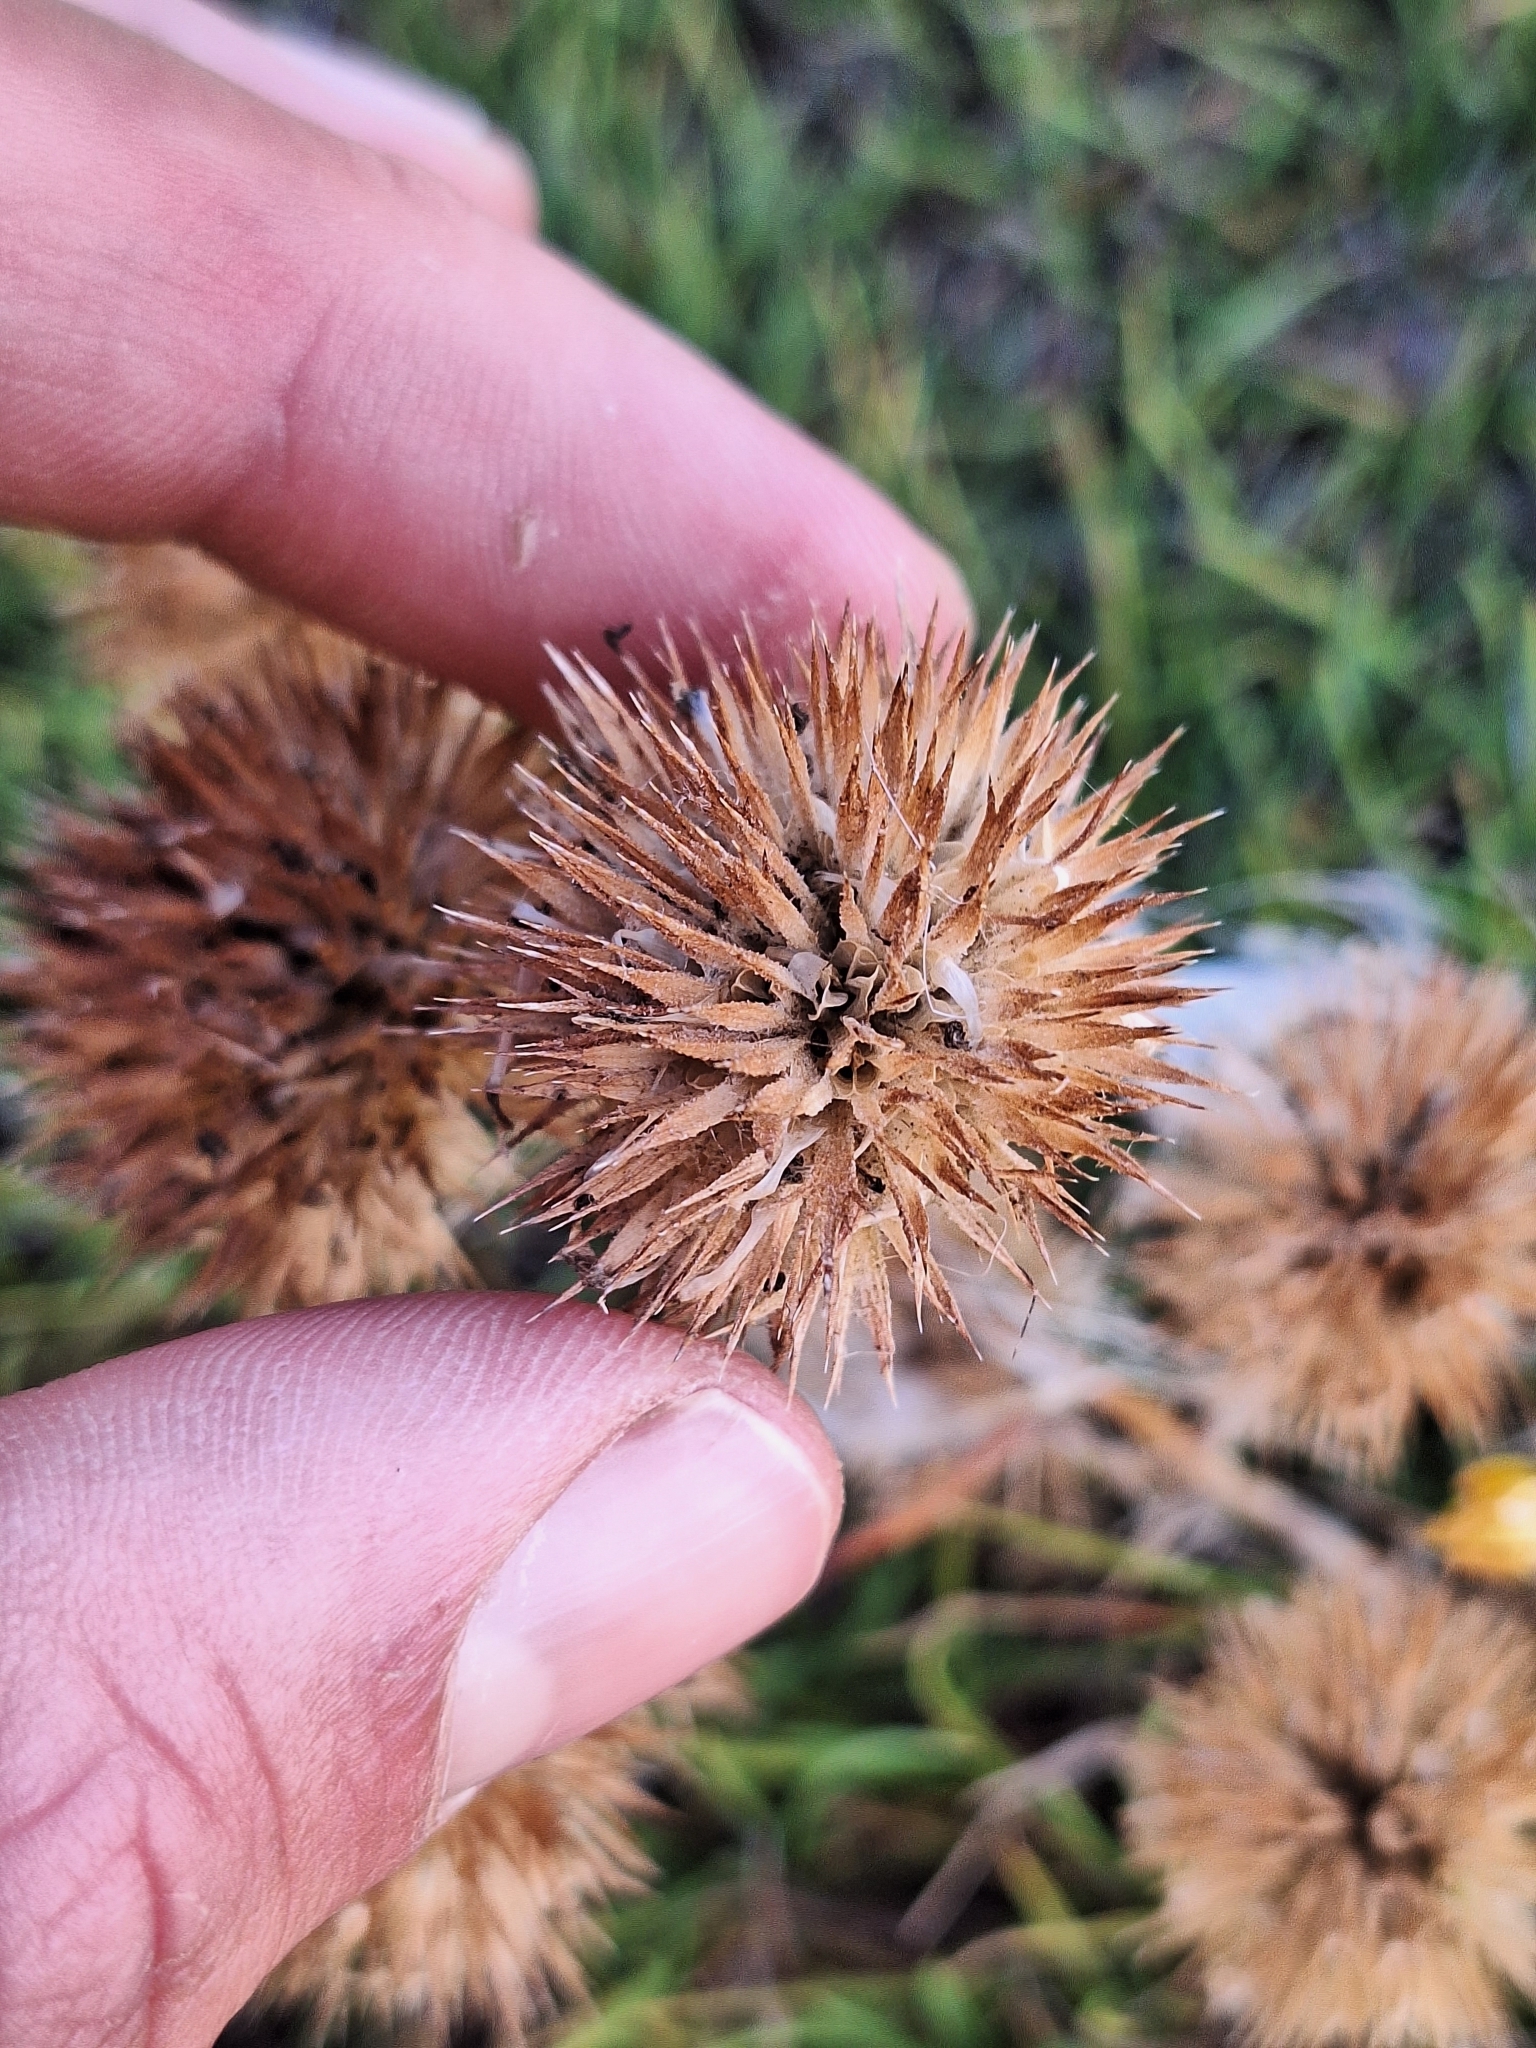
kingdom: Plantae
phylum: Tracheophyta
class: Magnoliopsida
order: Ericales
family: Polemoniaceae
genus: Navarretia
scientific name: Navarretia squarrosa
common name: Skunkweed
